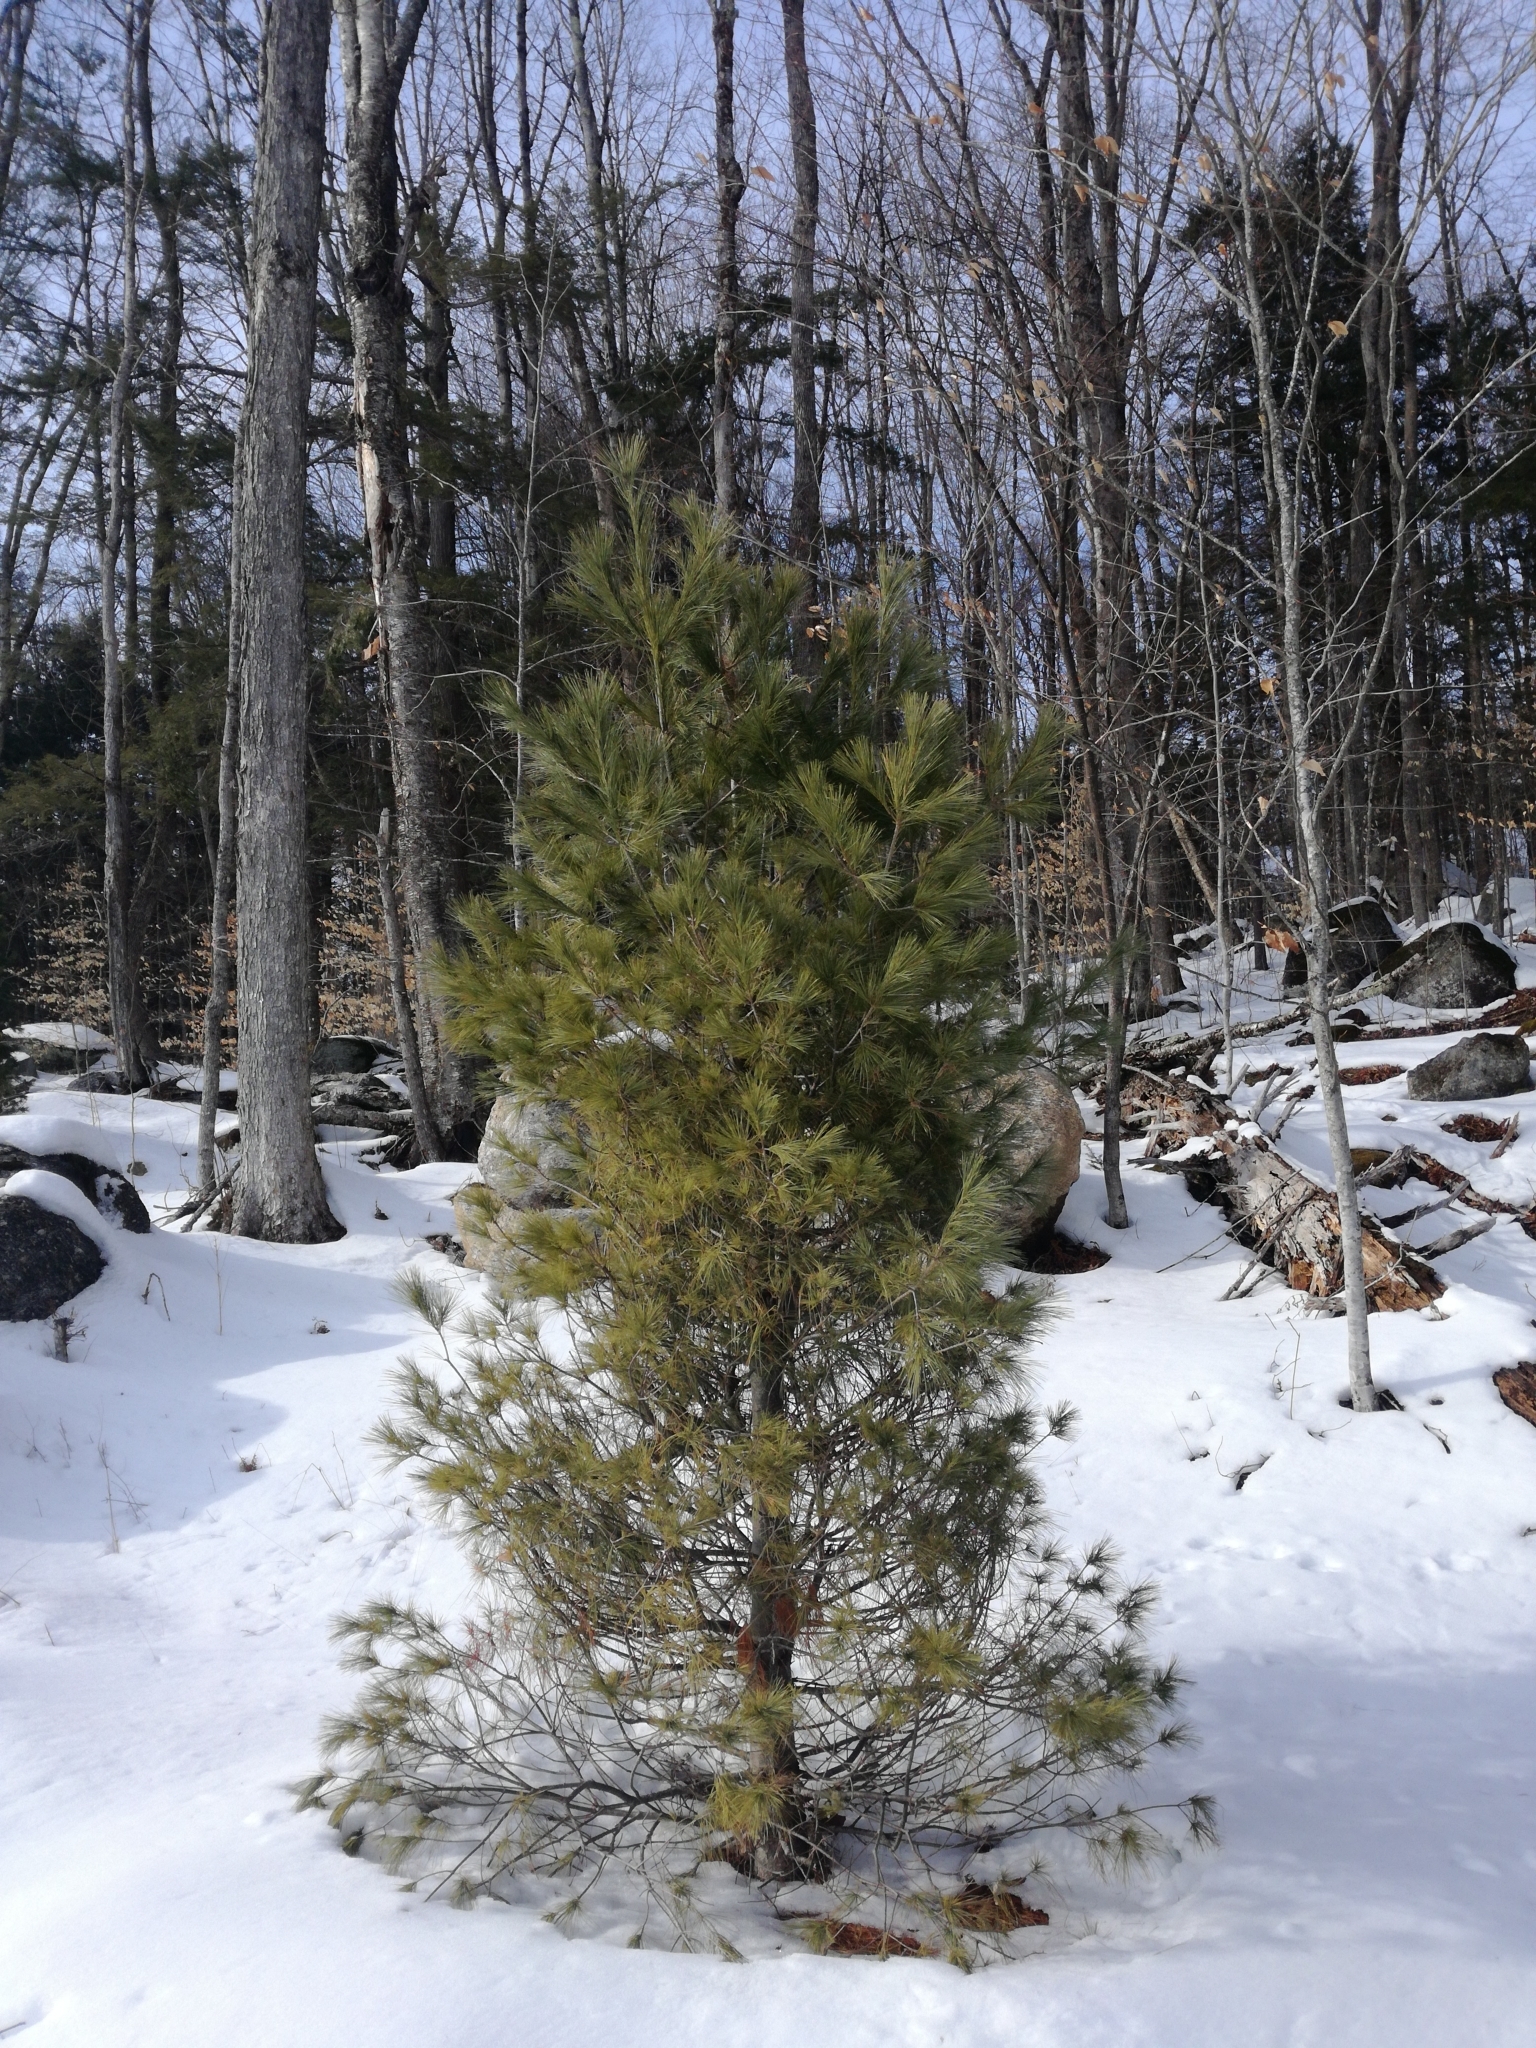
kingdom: Plantae
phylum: Tracheophyta
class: Pinopsida
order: Pinales
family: Pinaceae
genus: Pinus
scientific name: Pinus strobus
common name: Weymouth pine
